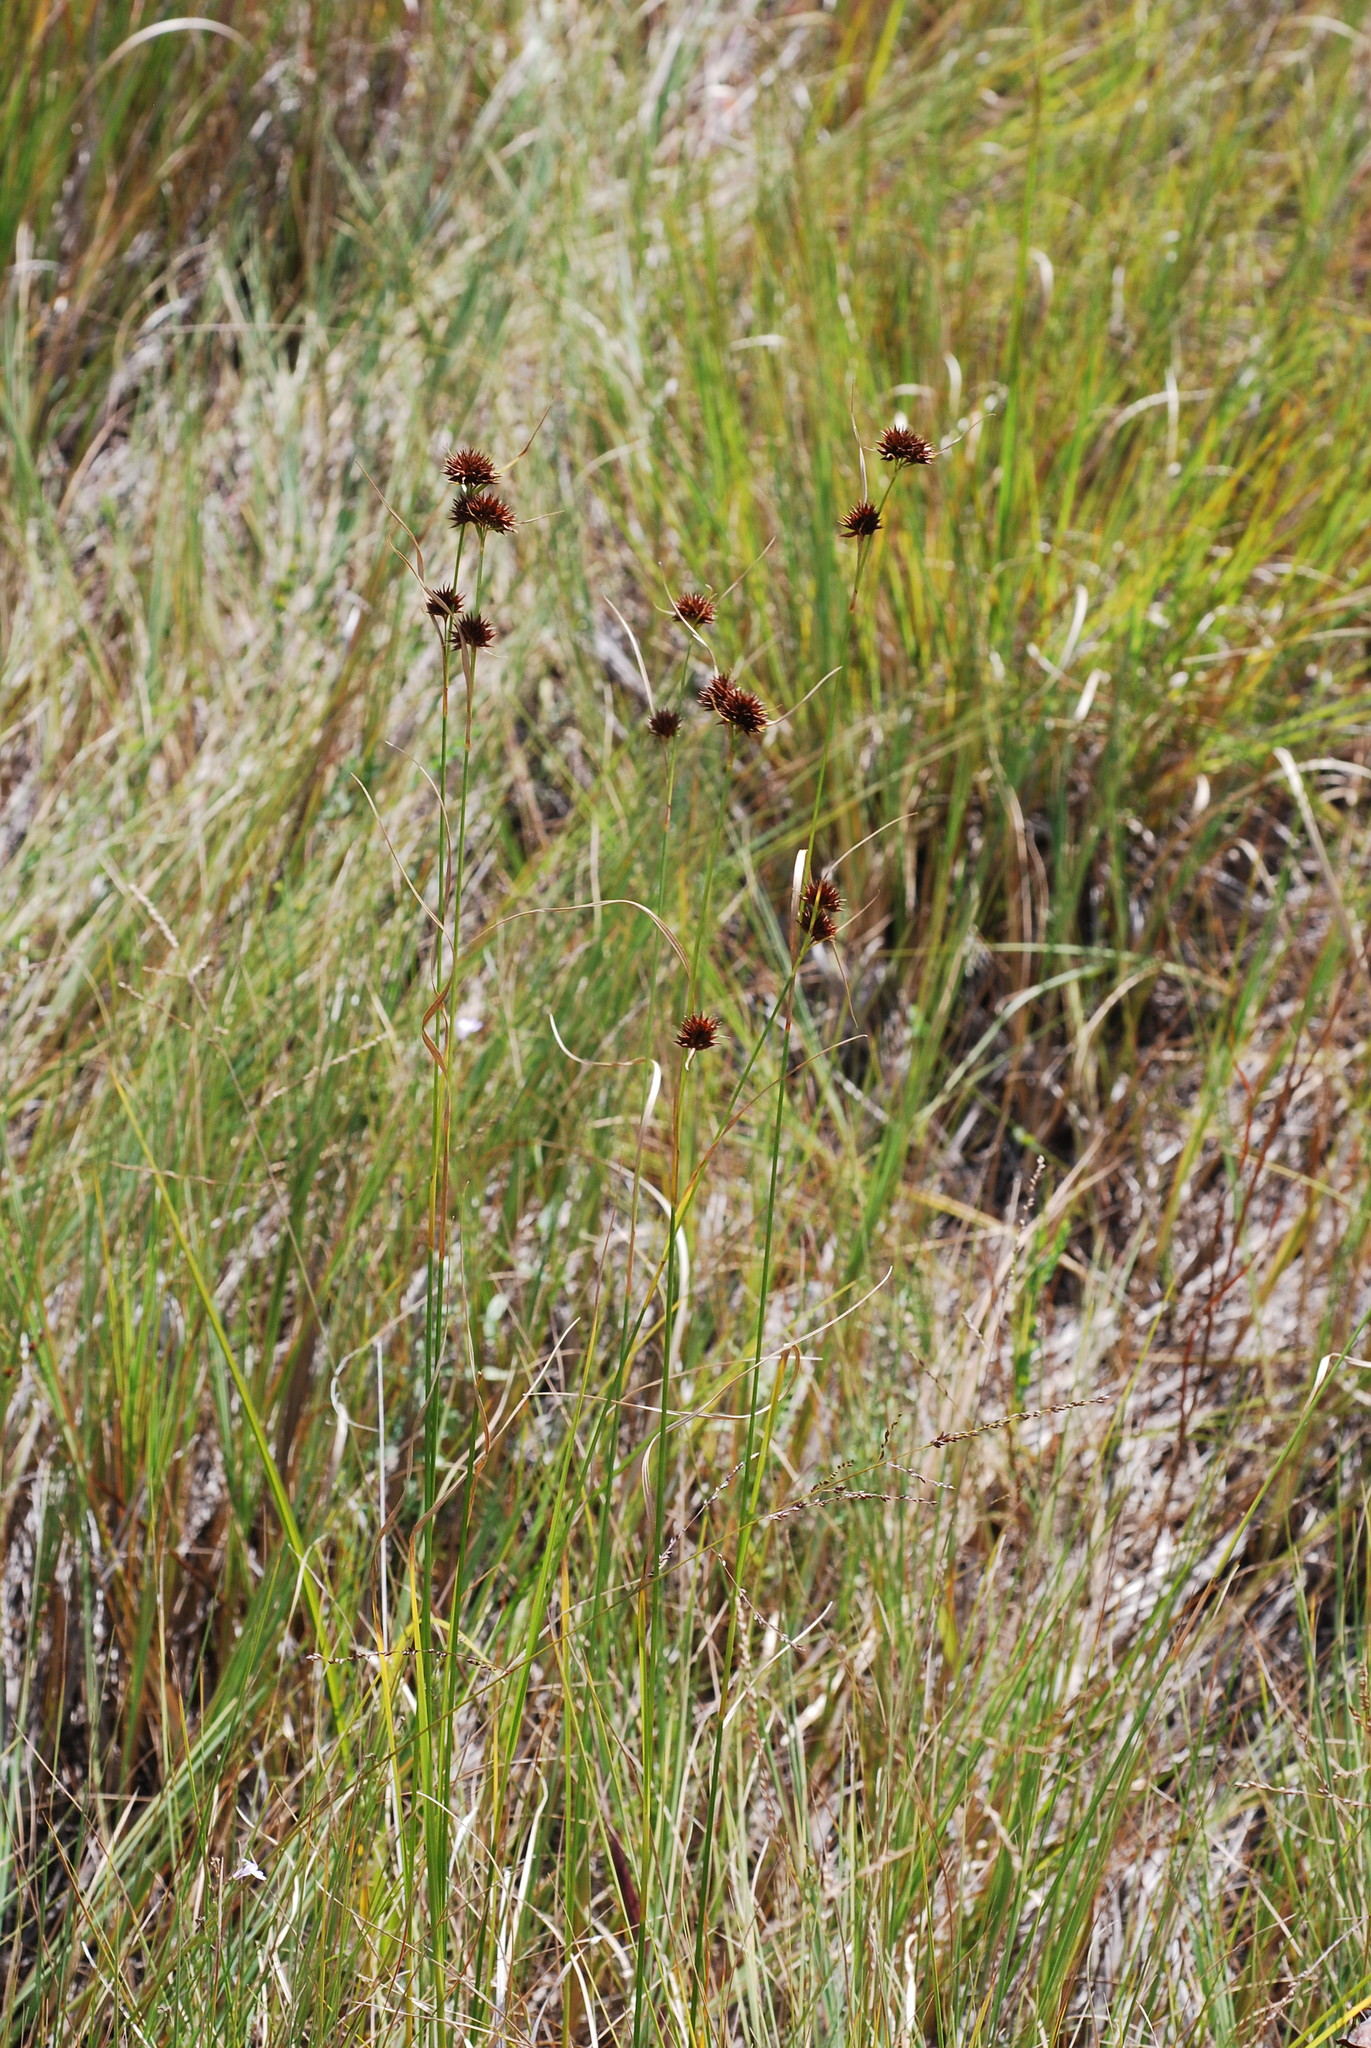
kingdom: Plantae
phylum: Tracheophyta
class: Liliopsida
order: Poales
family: Cyperaceae
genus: Rhynchospora
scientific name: Rhynchospora cephalantha
